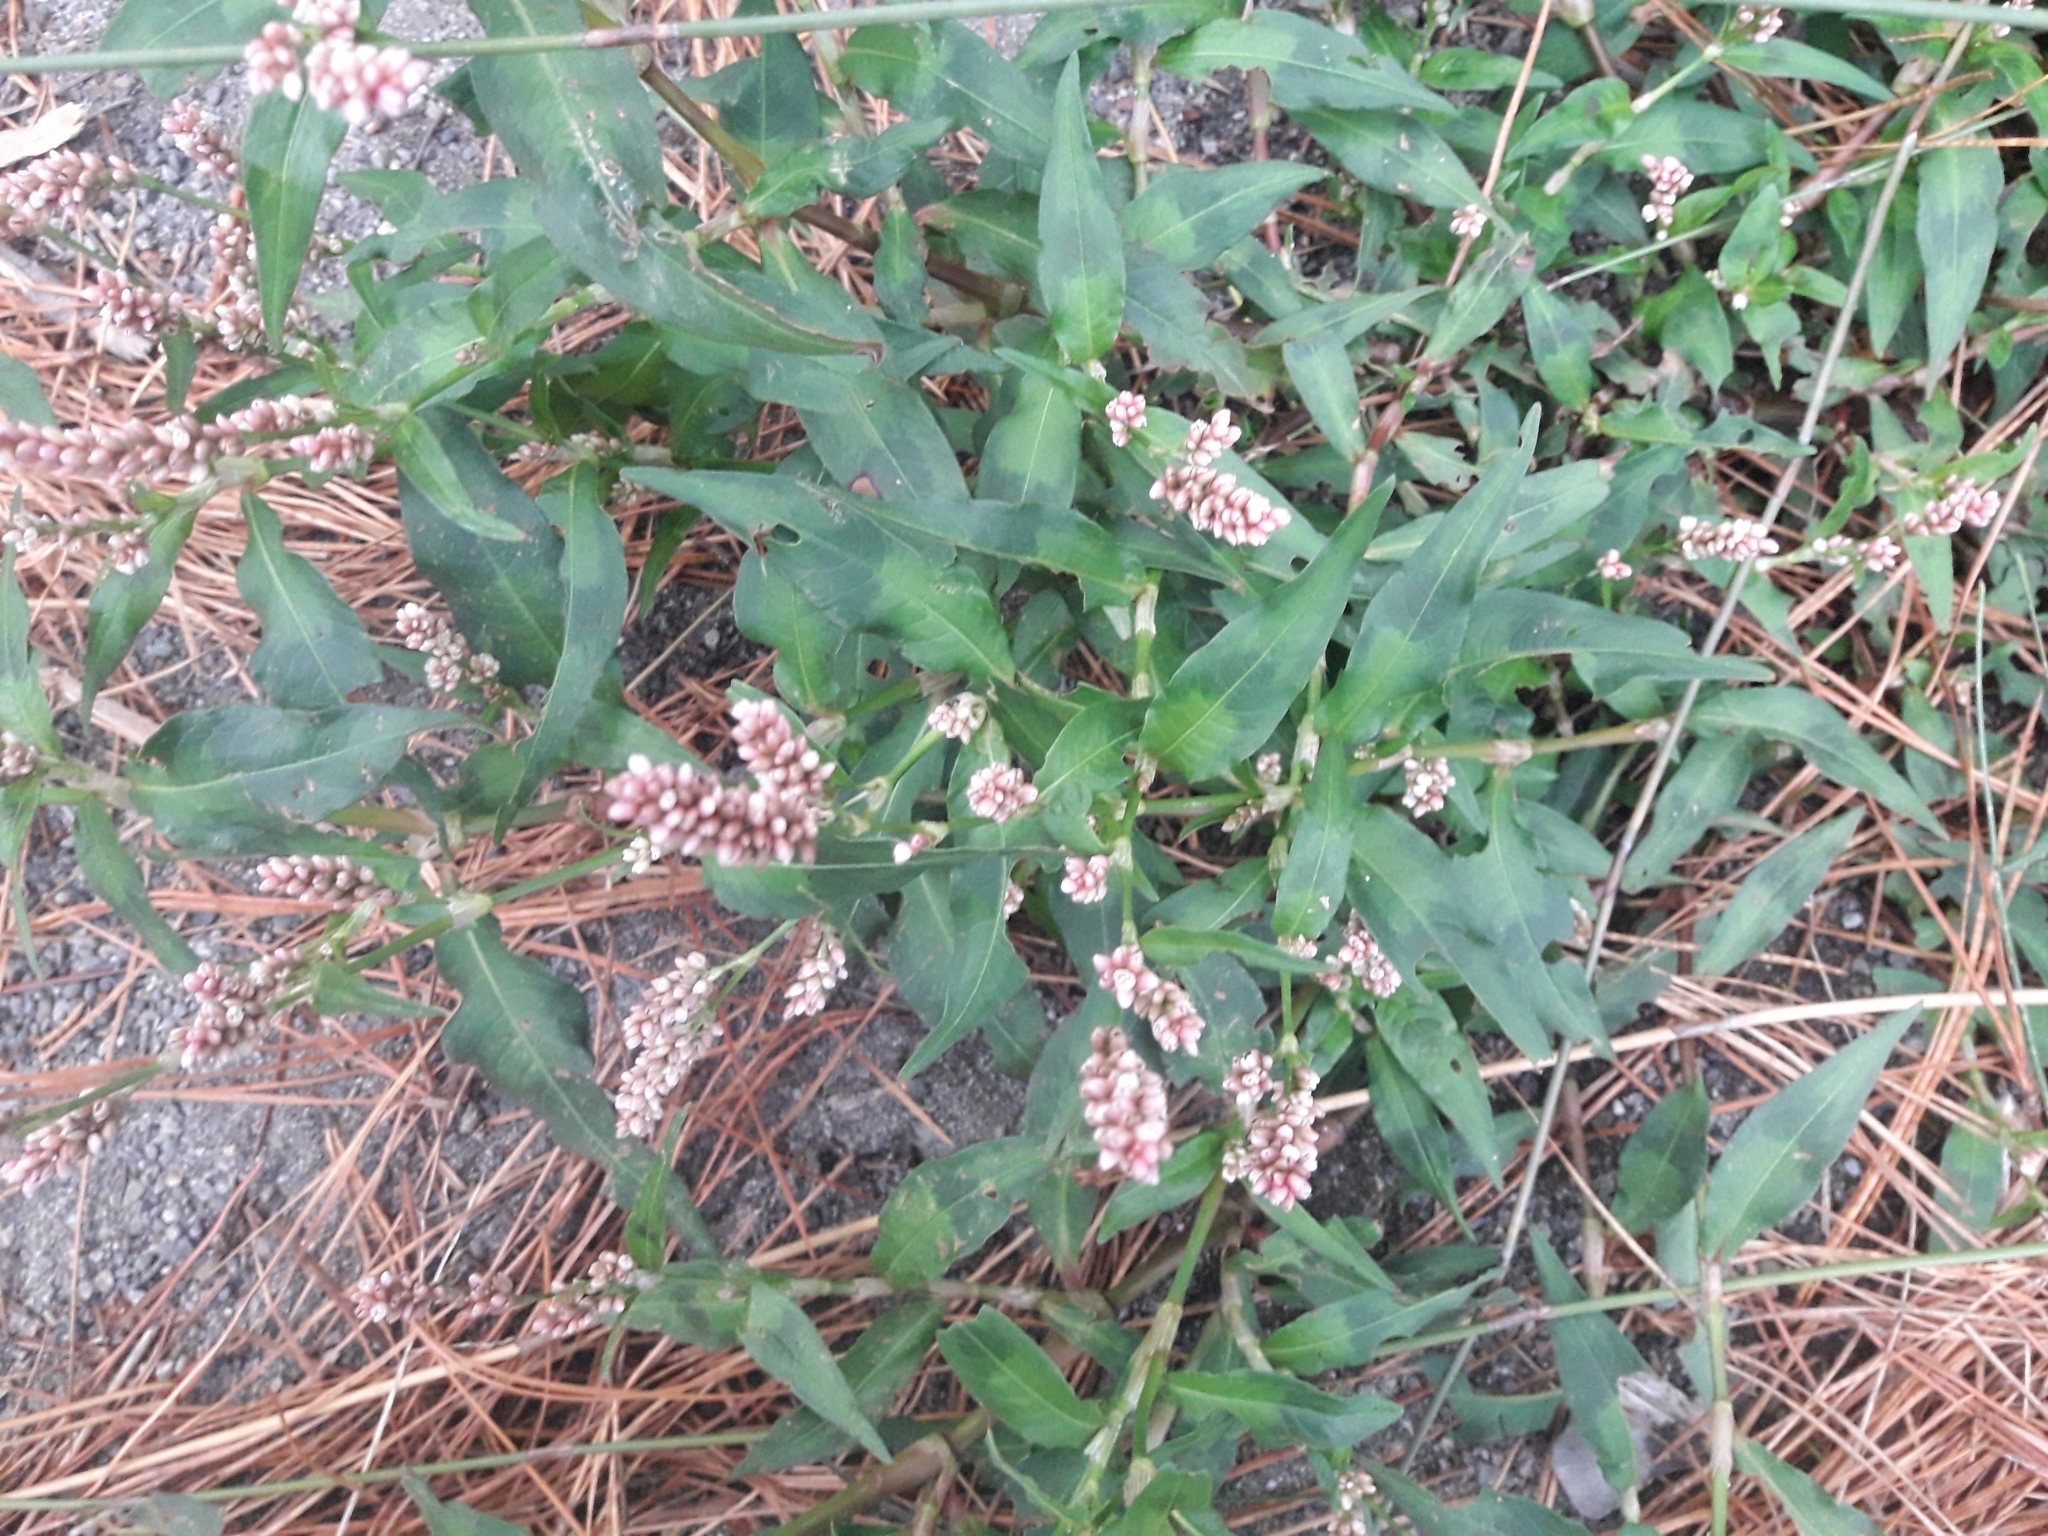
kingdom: Plantae
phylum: Tracheophyta
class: Magnoliopsida
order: Caryophyllales
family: Polygonaceae
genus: Persicaria
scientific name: Persicaria maculosa
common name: Redshank
